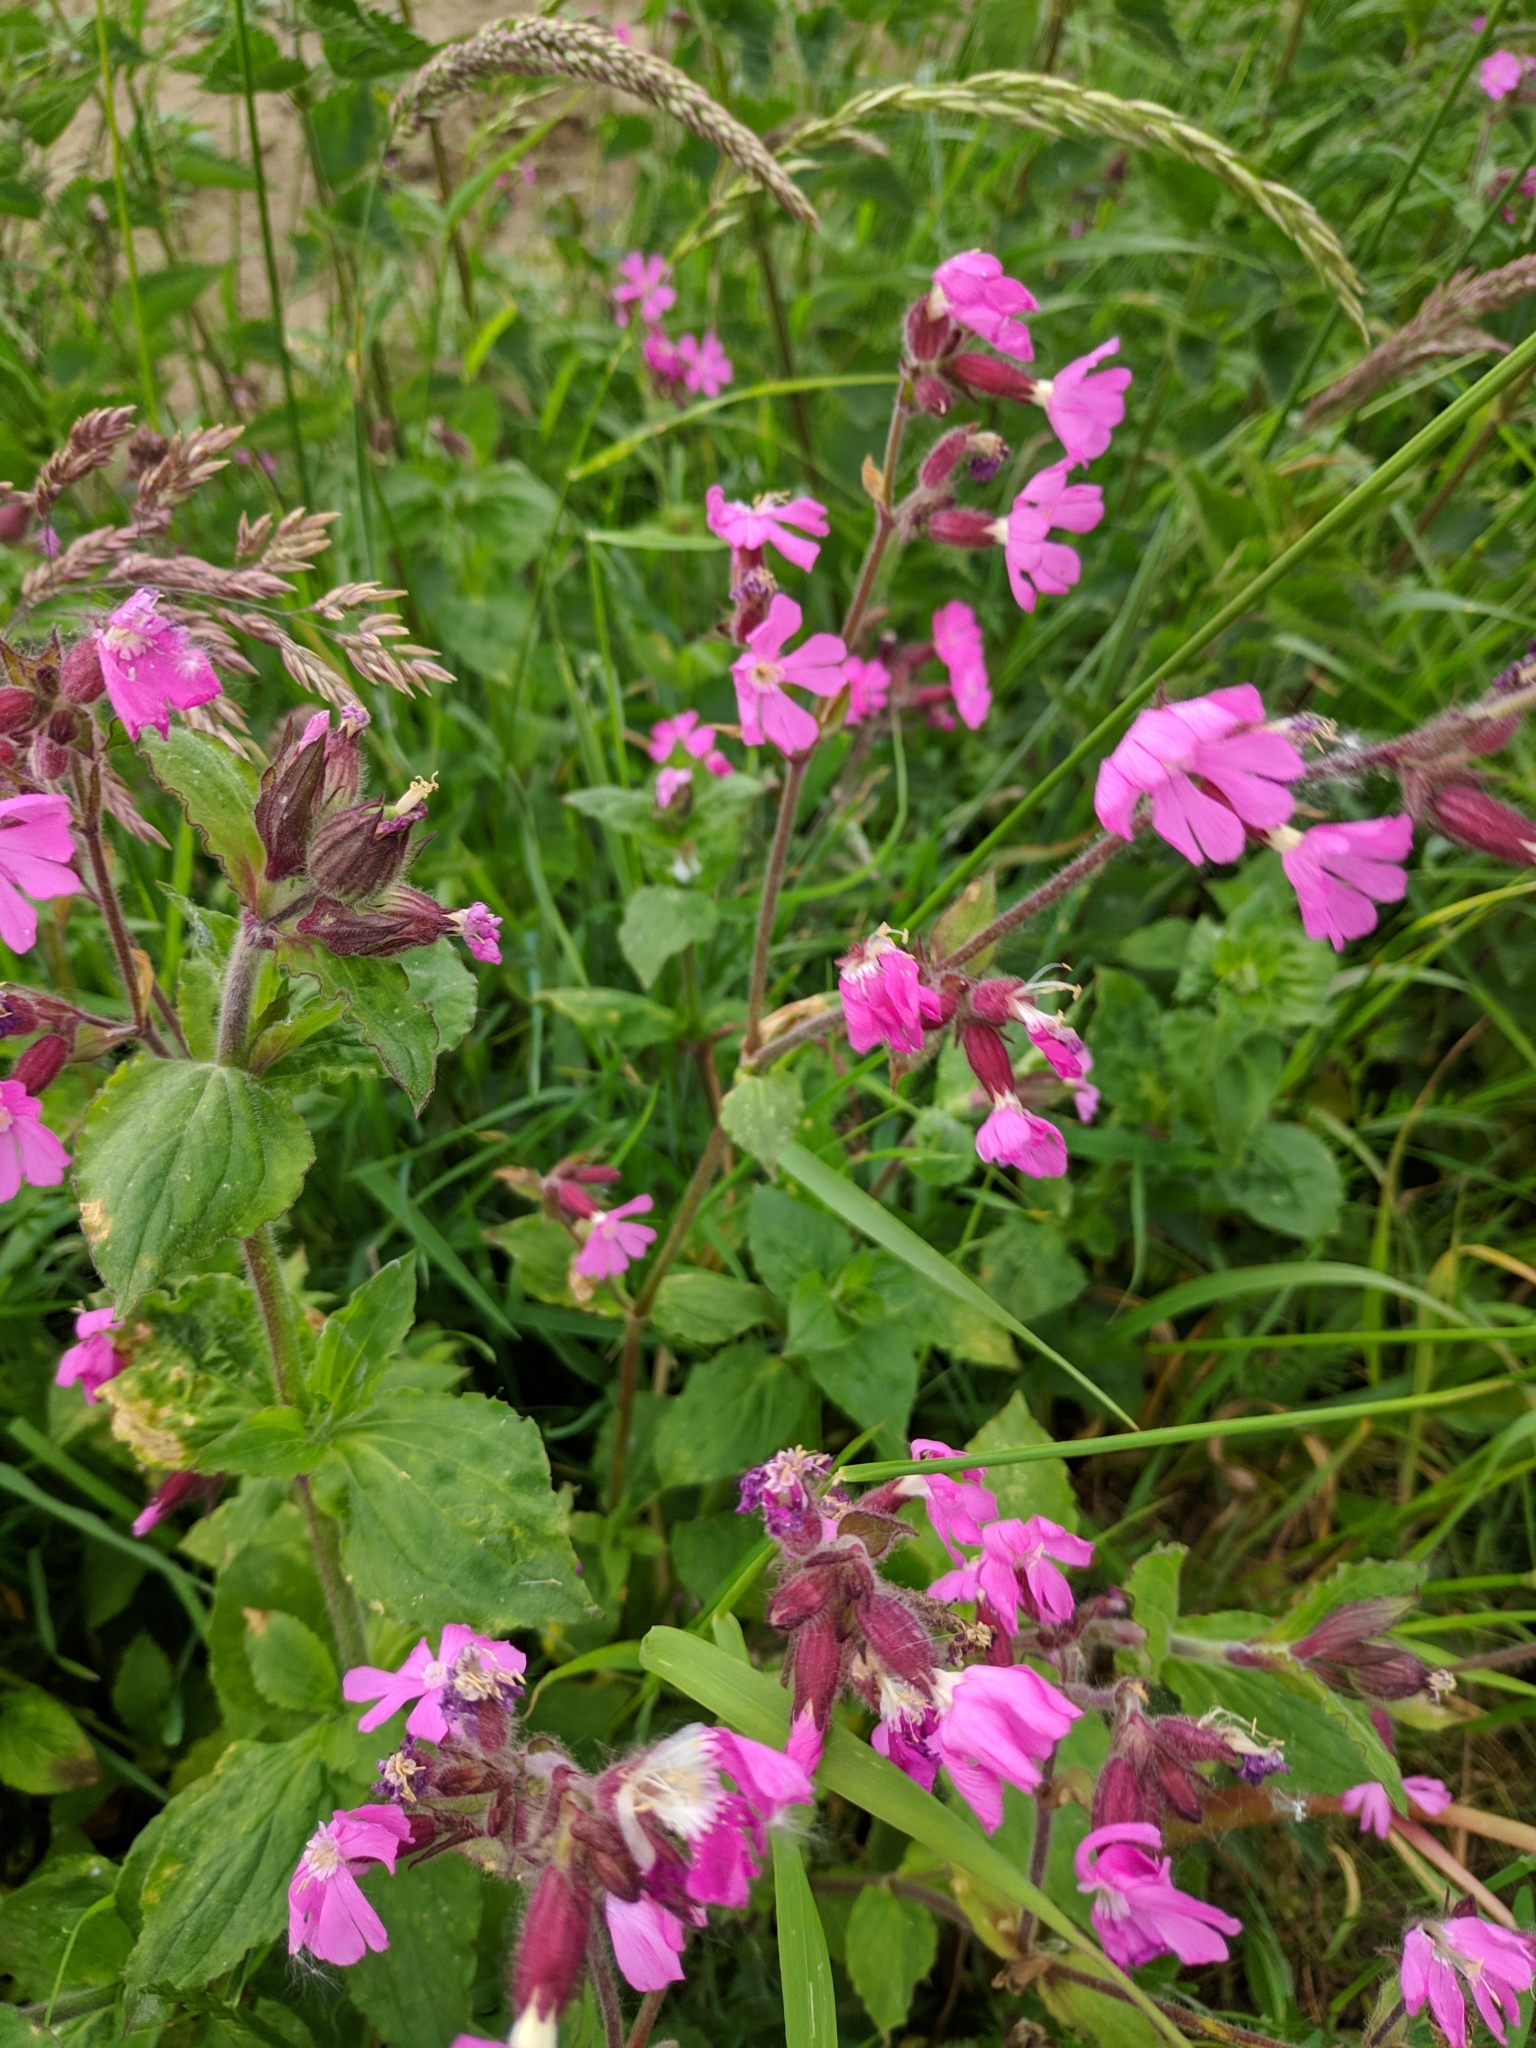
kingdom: Plantae
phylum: Tracheophyta
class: Magnoliopsida
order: Caryophyllales
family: Caryophyllaceae
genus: Silene
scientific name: Silene dioica
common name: Red campion
